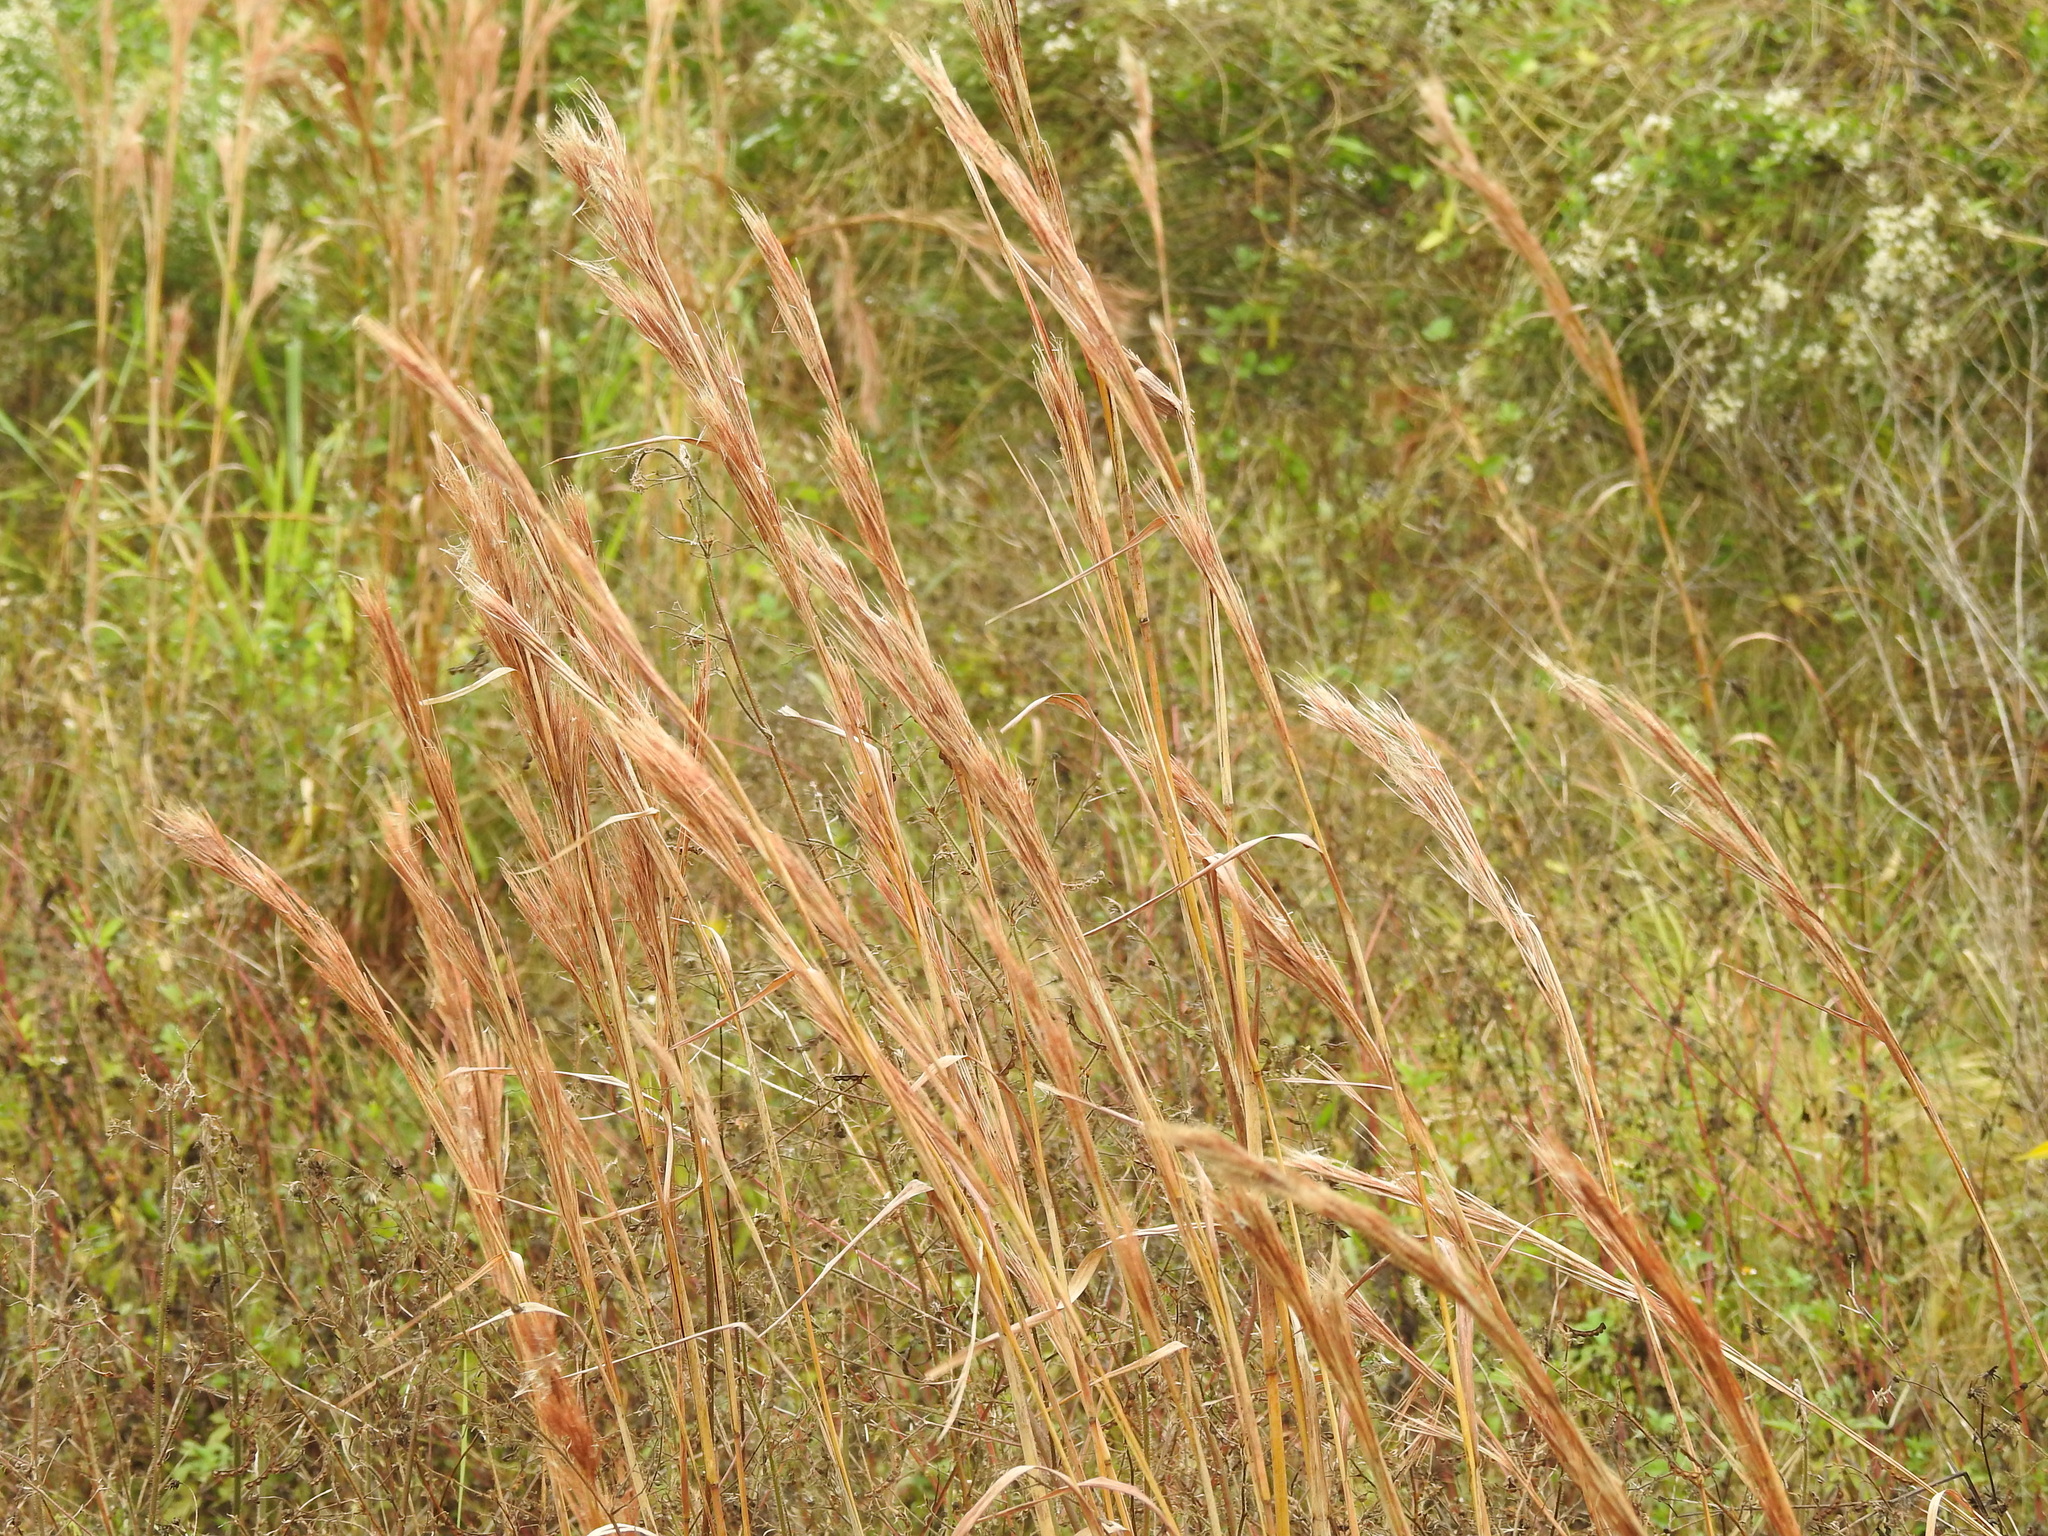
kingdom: Plantae
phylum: Tracheophyta
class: Liliopsida
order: Poales
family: Poaceae
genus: Andropogon
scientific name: Andropogon tenuispatheus
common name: Bushy bluestem
